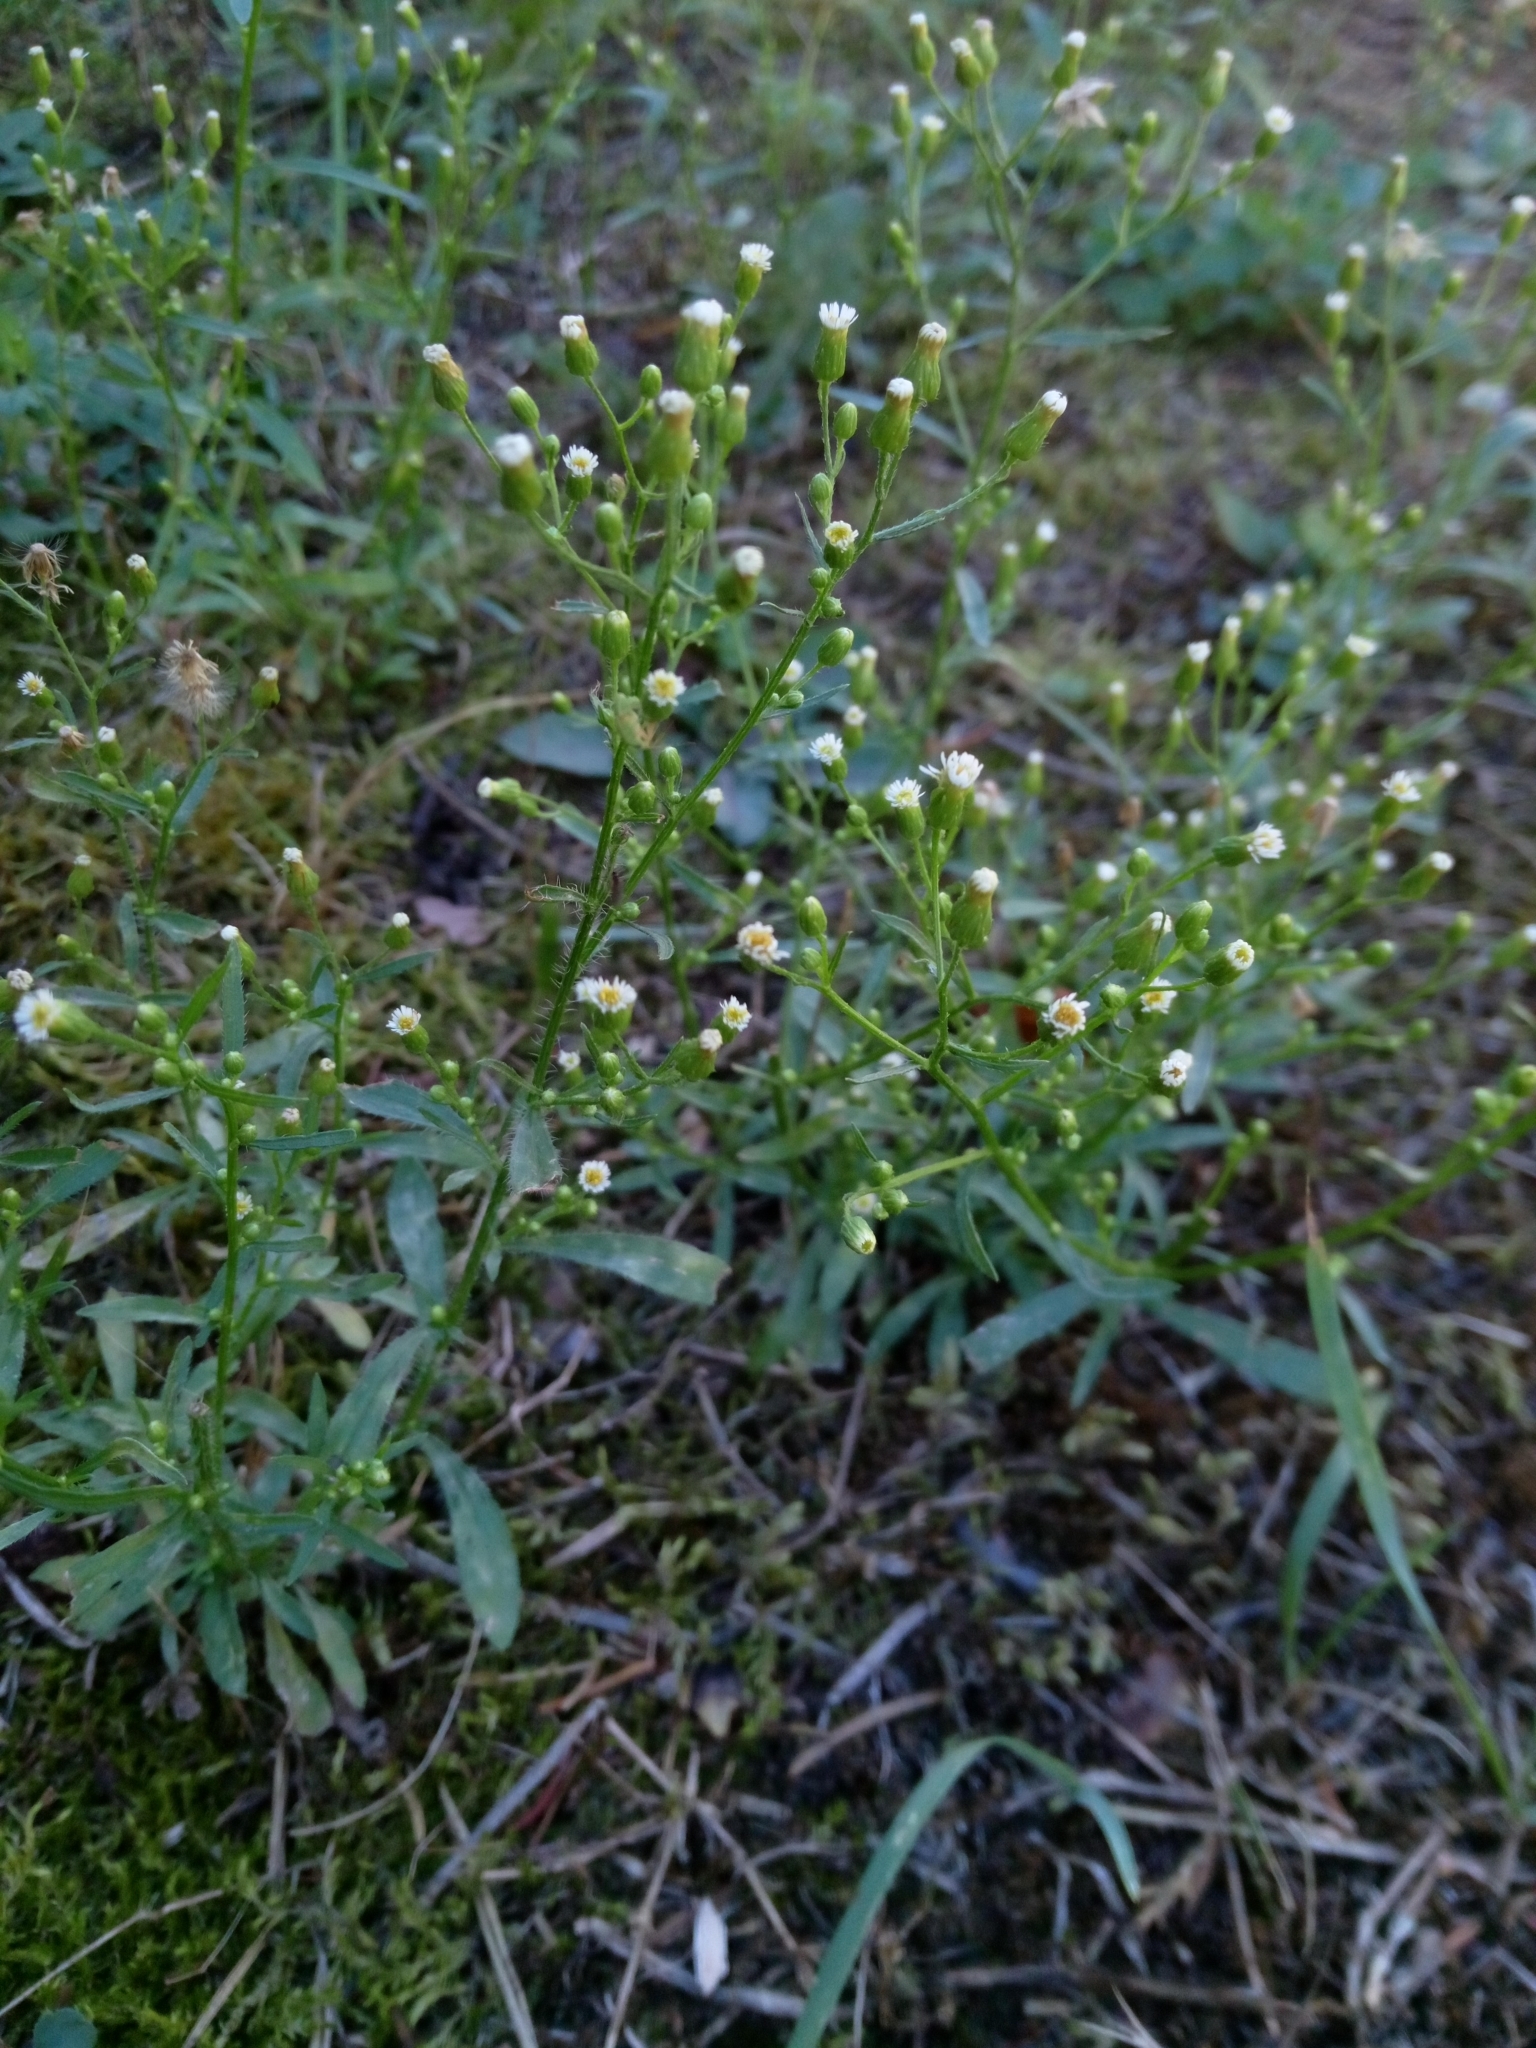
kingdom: Plantae
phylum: Tracheophyta
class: Magnoliopsida
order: Asterales
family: Asteraceae
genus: Erigeron
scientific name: Erigeron canadensis
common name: Canadian fleabane
